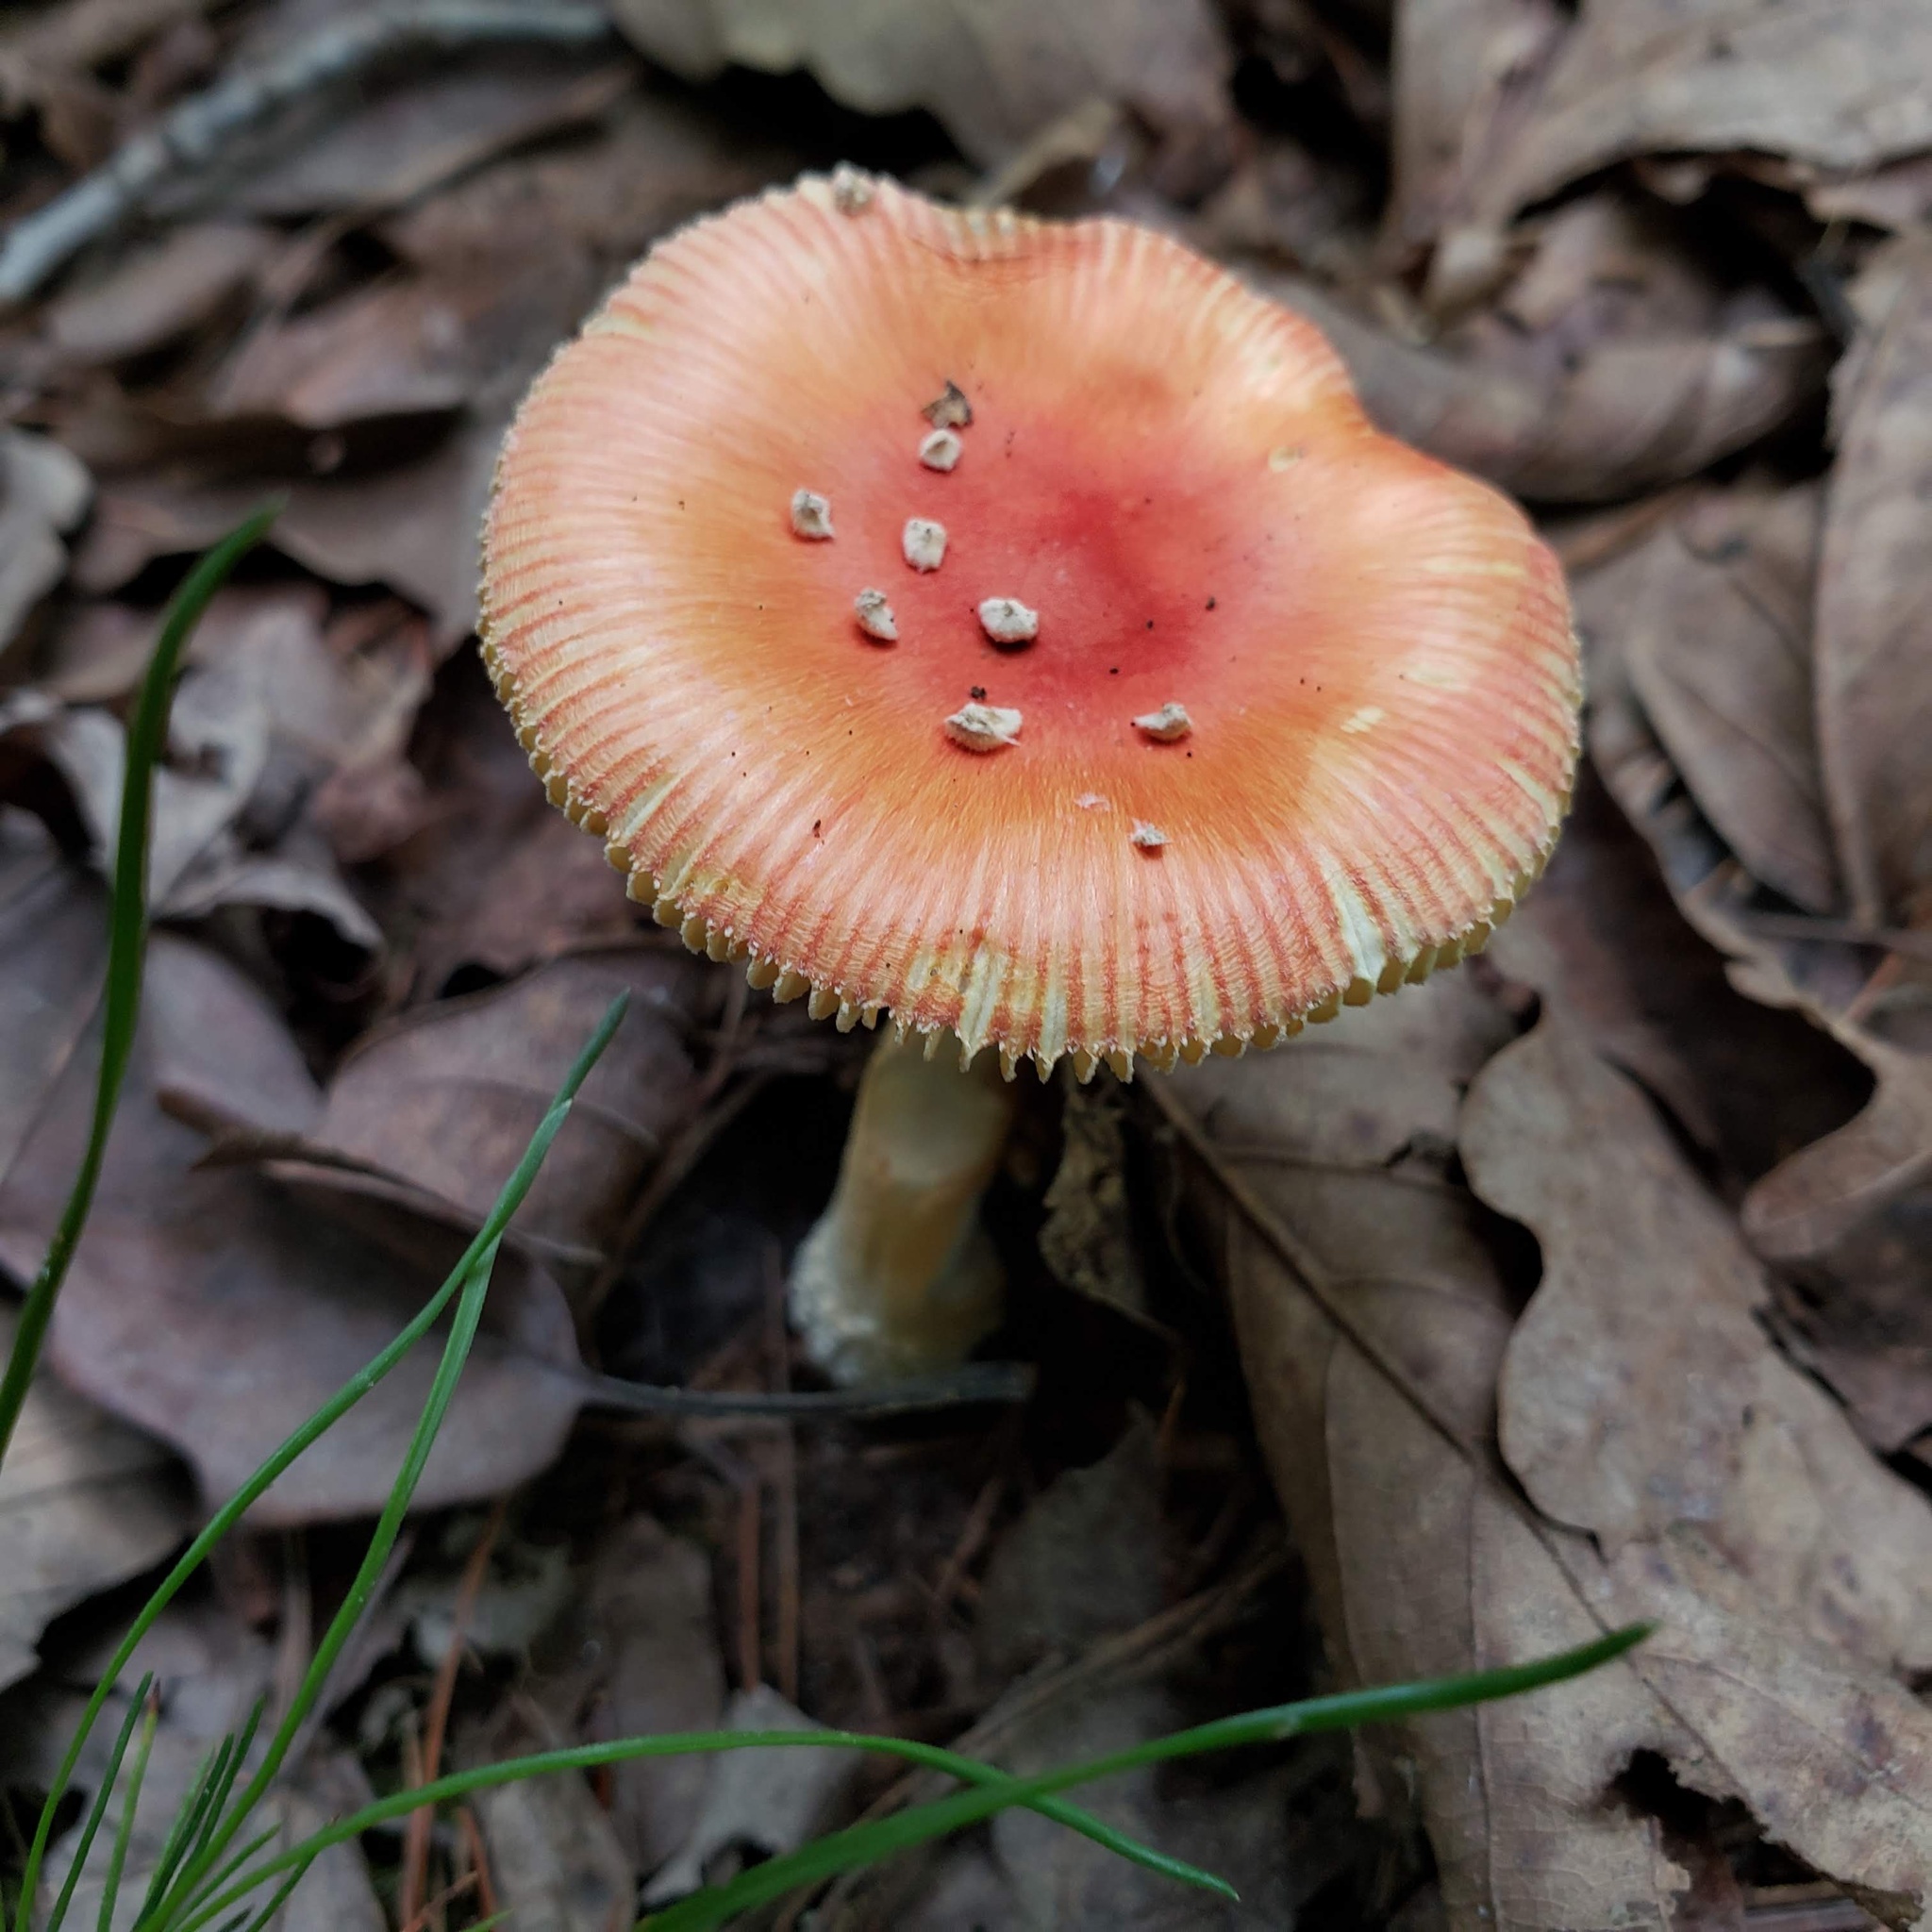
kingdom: Fungi
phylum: Basidiomycota
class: Agaricomycetes
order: Agaricales
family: Amanitaceae
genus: Amanita
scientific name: Amanita parcivolvata
